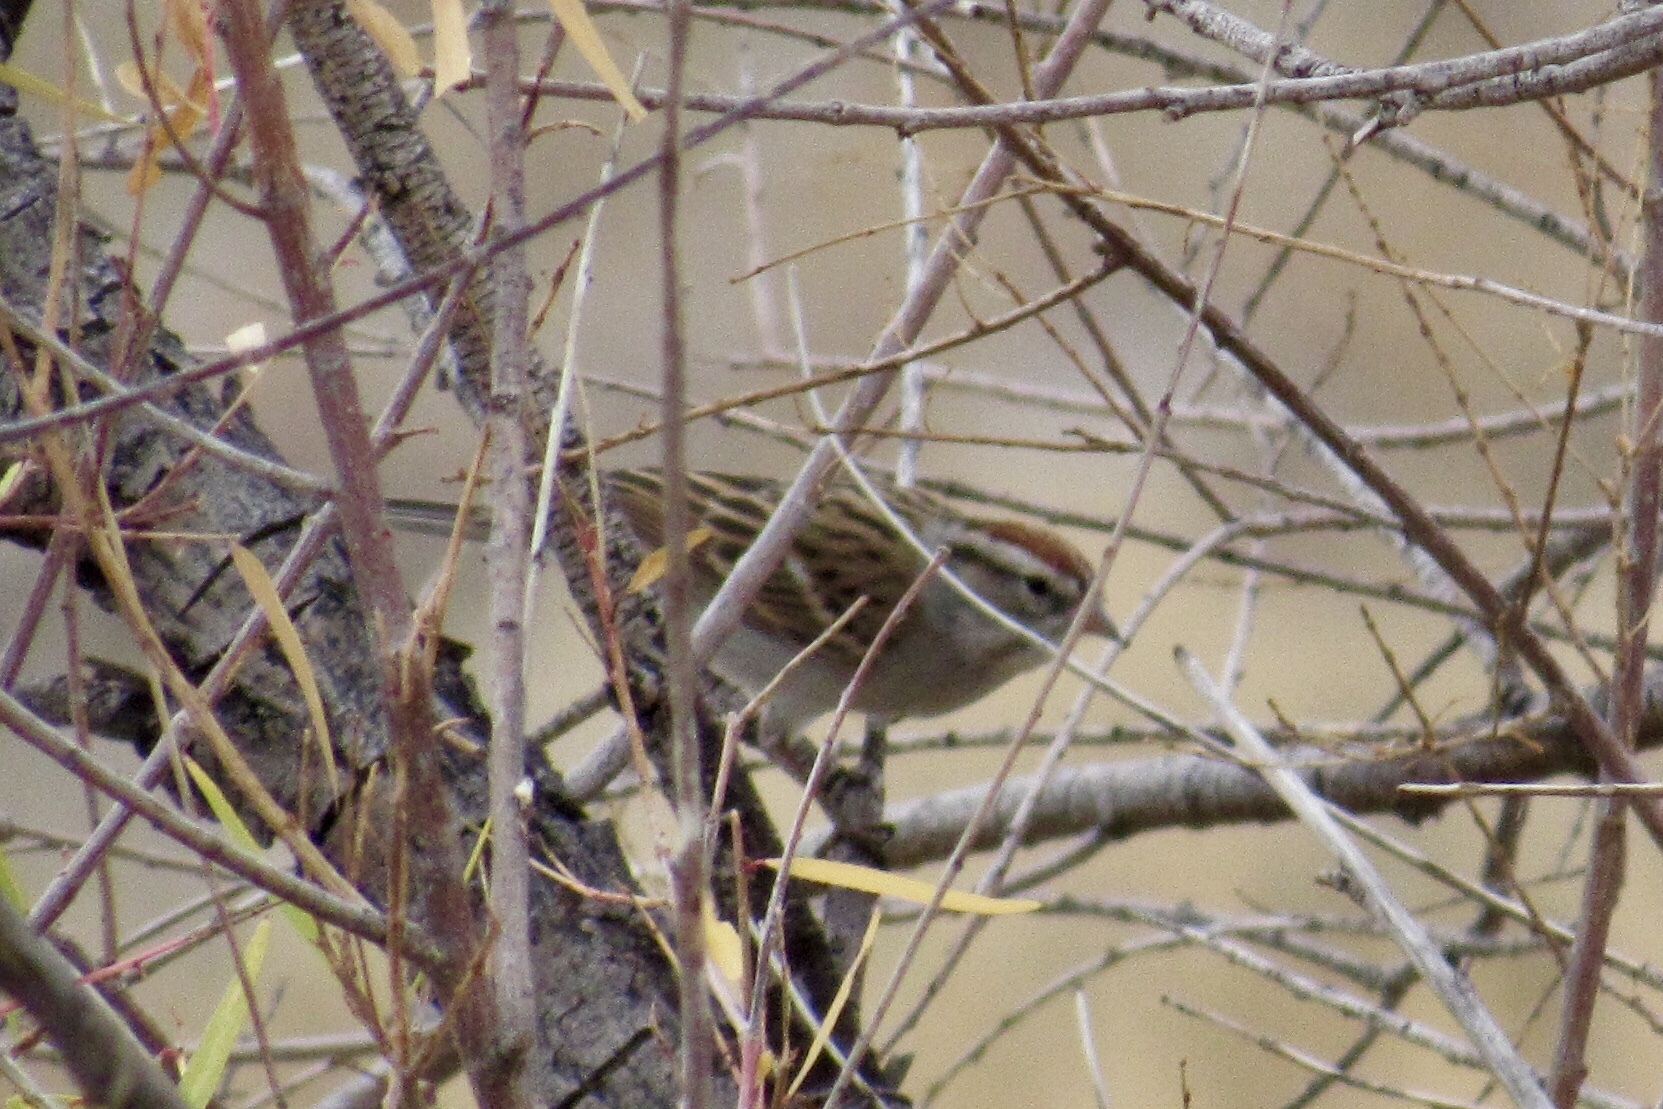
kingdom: Animalia
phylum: Chordata
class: Aves
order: Passeriformes
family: Passerellidae
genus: Spizella
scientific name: Spizella passerina
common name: Chipping sparrow
